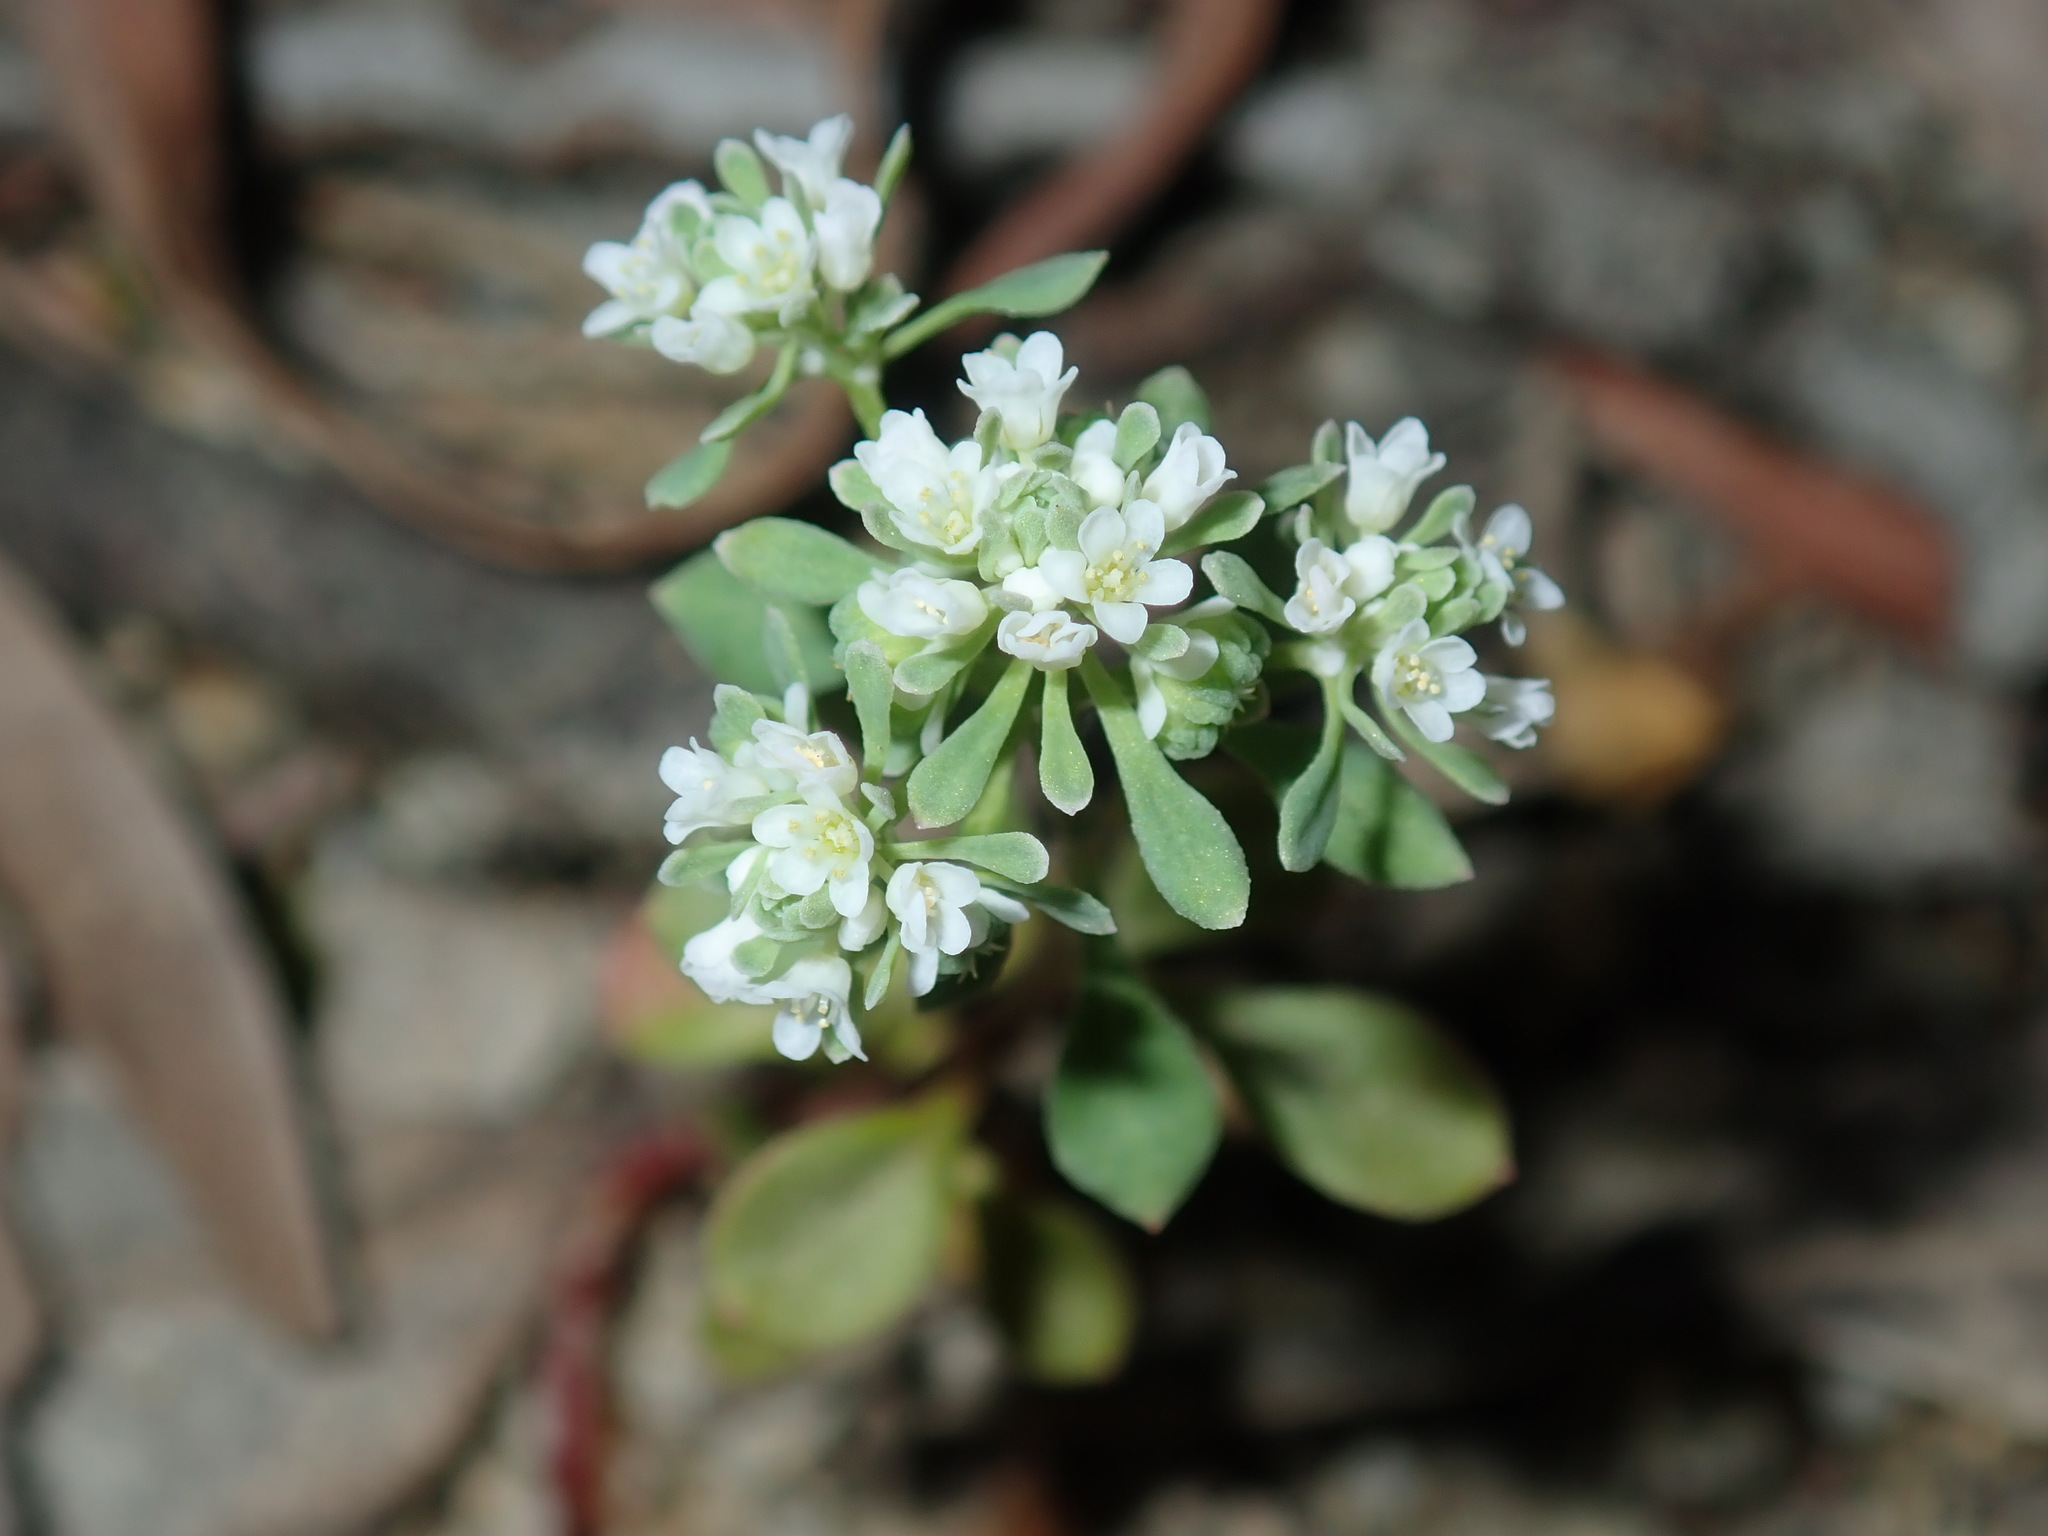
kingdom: Plantae
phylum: Tracheophyta
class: Magnoliopsida
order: Malpighiales
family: Phyllanthaceae
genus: Poranthera
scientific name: Poranthera microphylla
